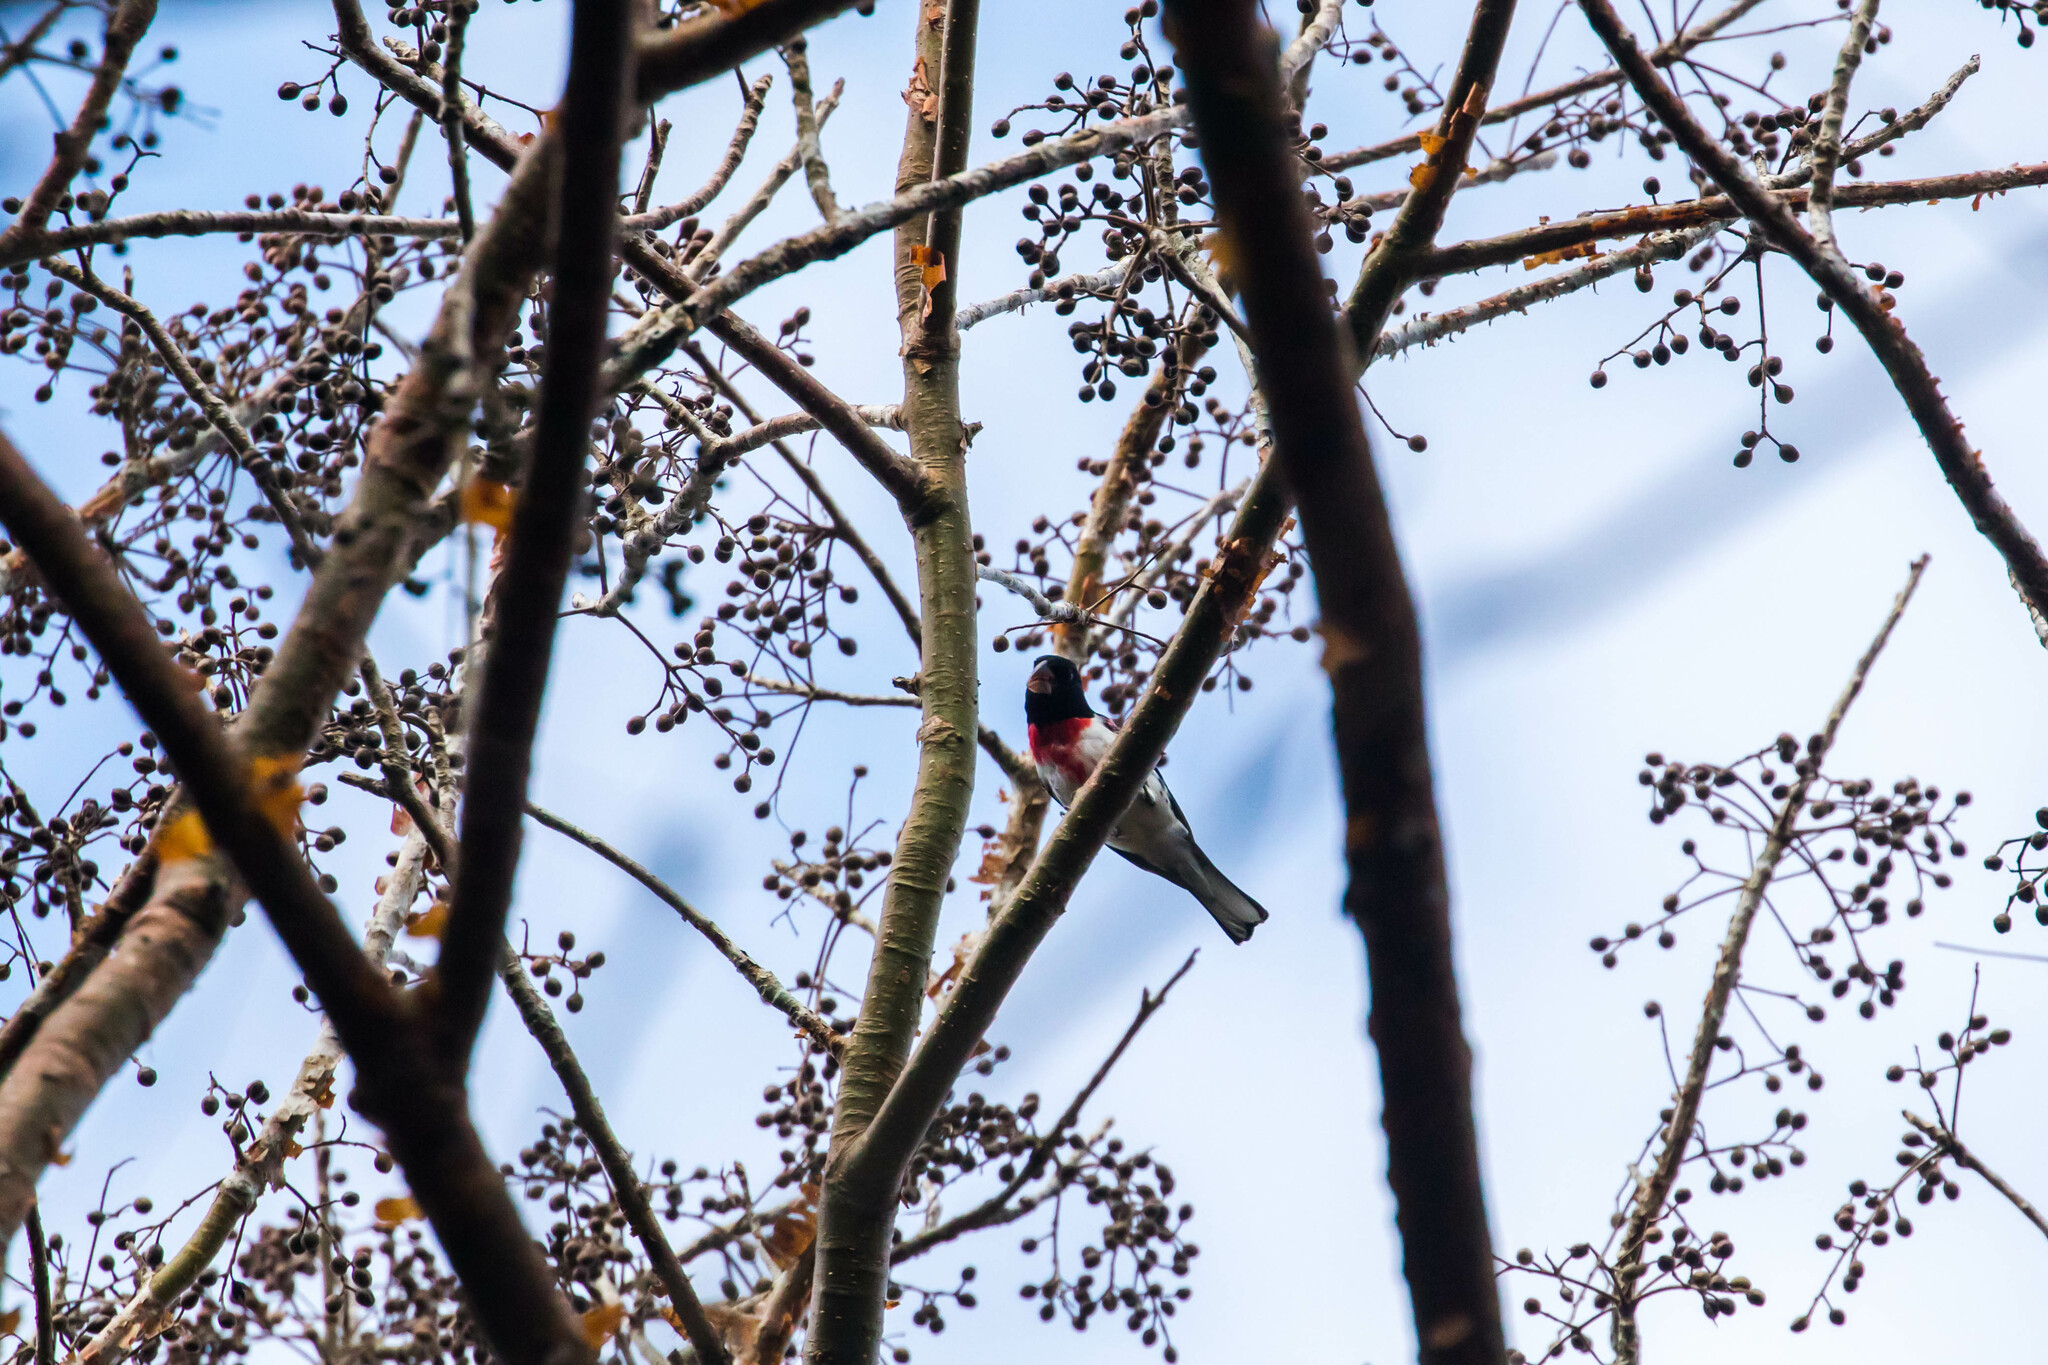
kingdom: Animalia
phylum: Chordata
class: Aves
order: Passeriformes
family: Cardinalidae
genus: Pheucticus
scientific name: Pheucticus ludovicianus
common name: Rose-breasted grosbeak
